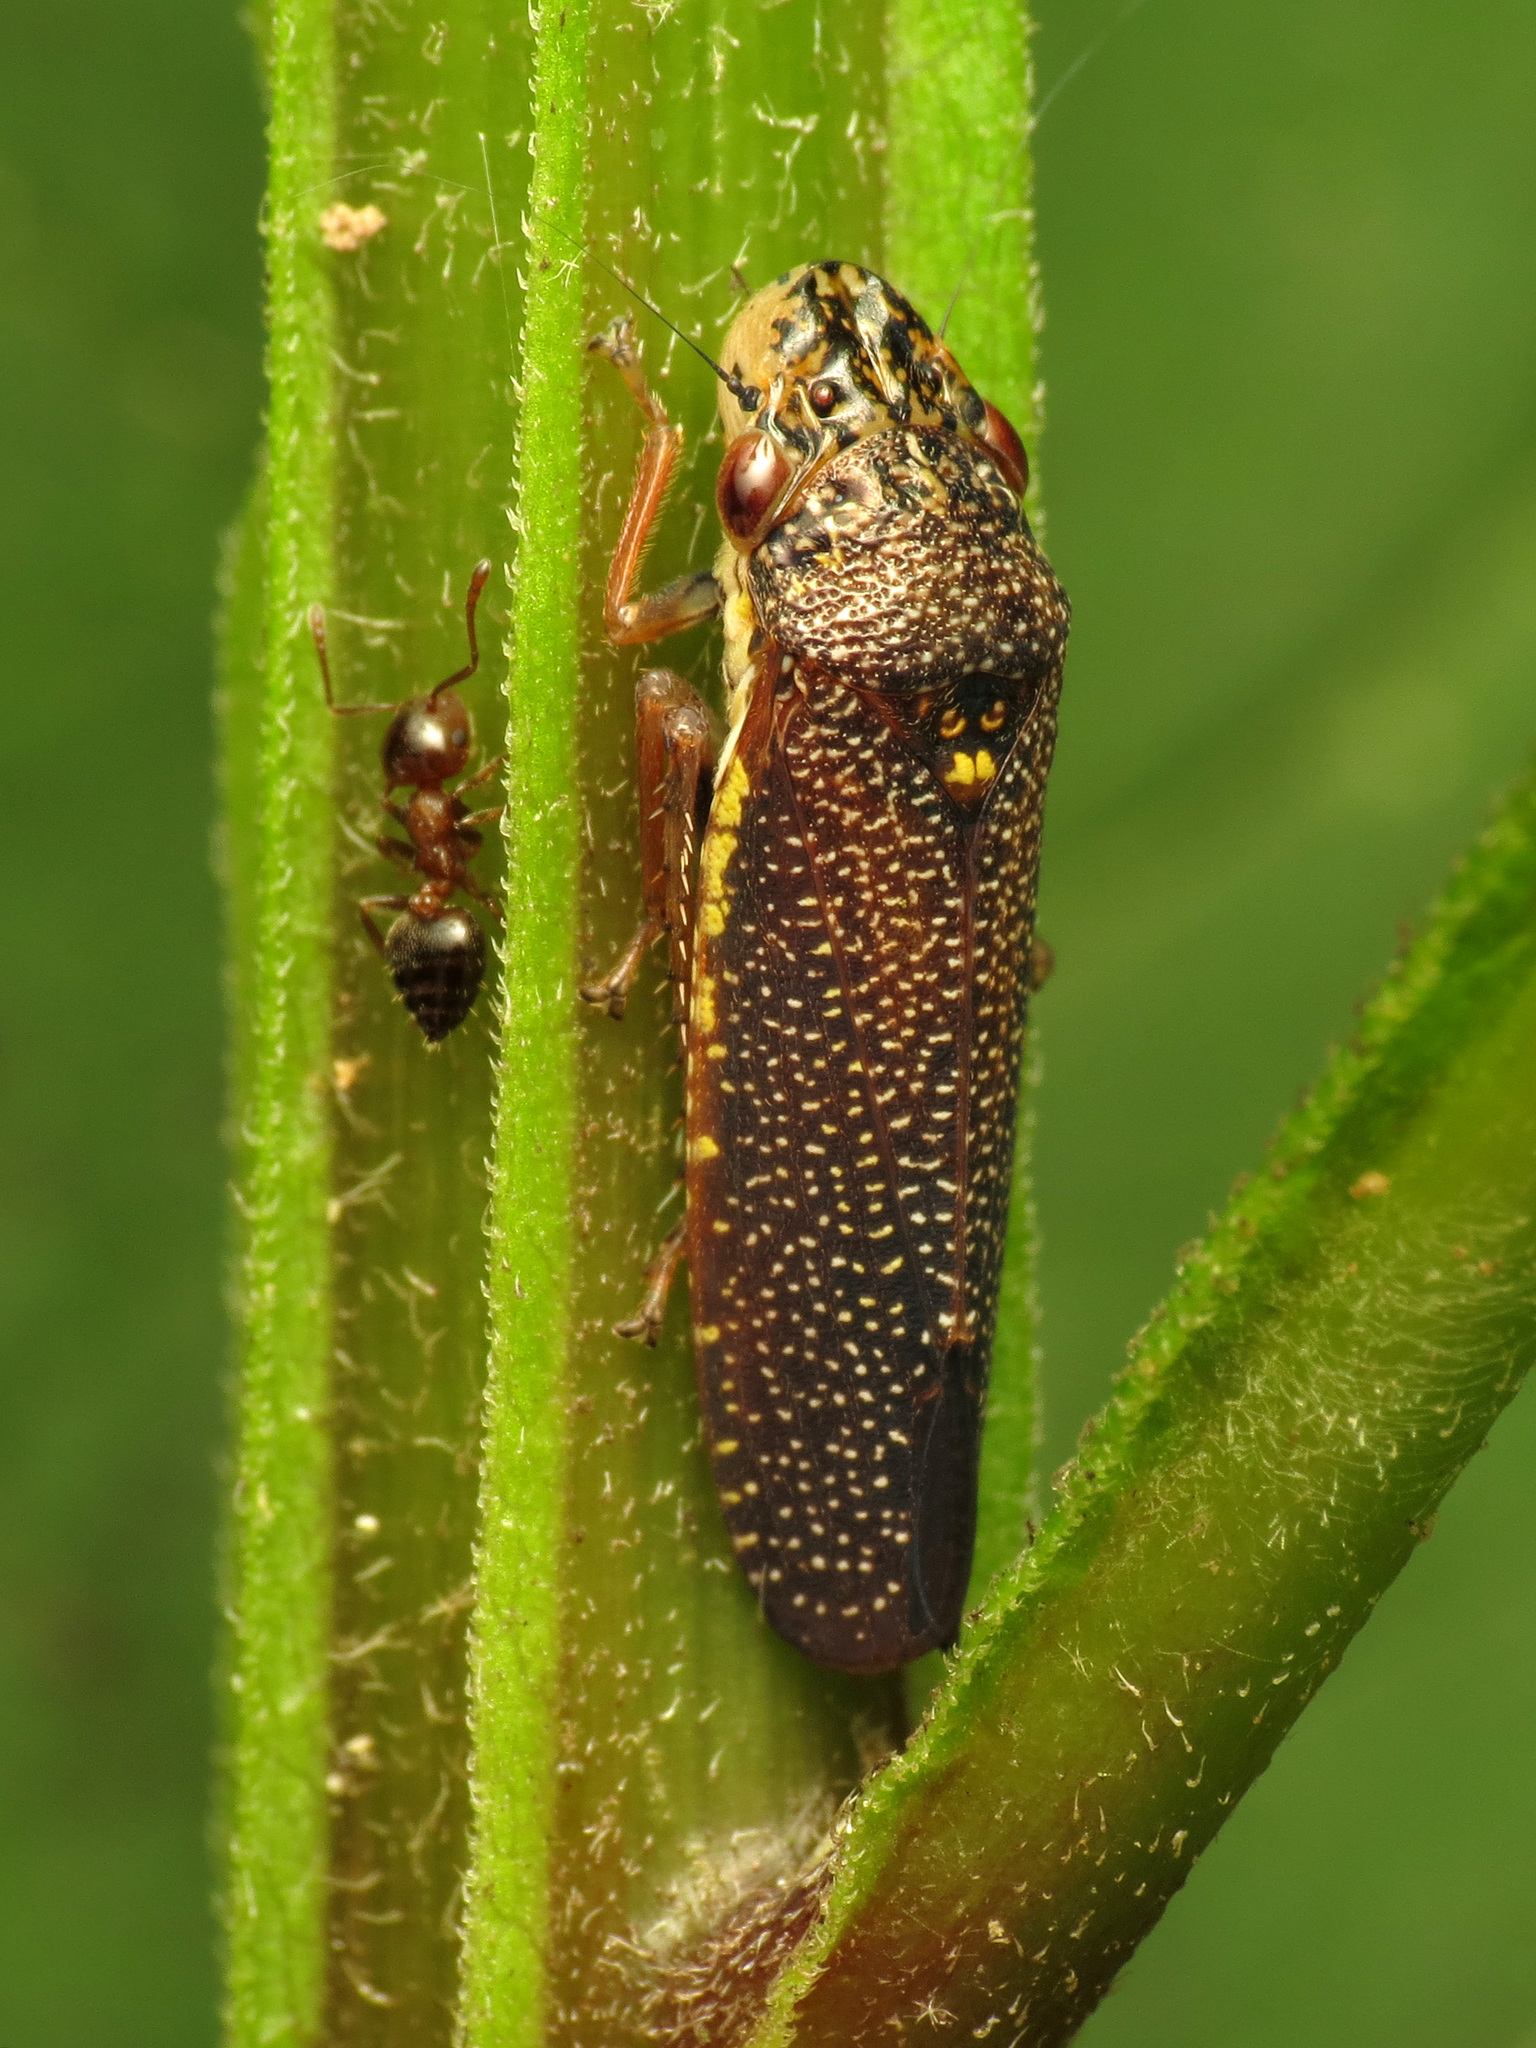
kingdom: Animalia
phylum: Arthropoda
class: Insecta
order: Hemiptera
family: Cicadellidae
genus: Paraulacizes
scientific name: Paraulacizes irrorata
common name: Speckled sharpshooter
